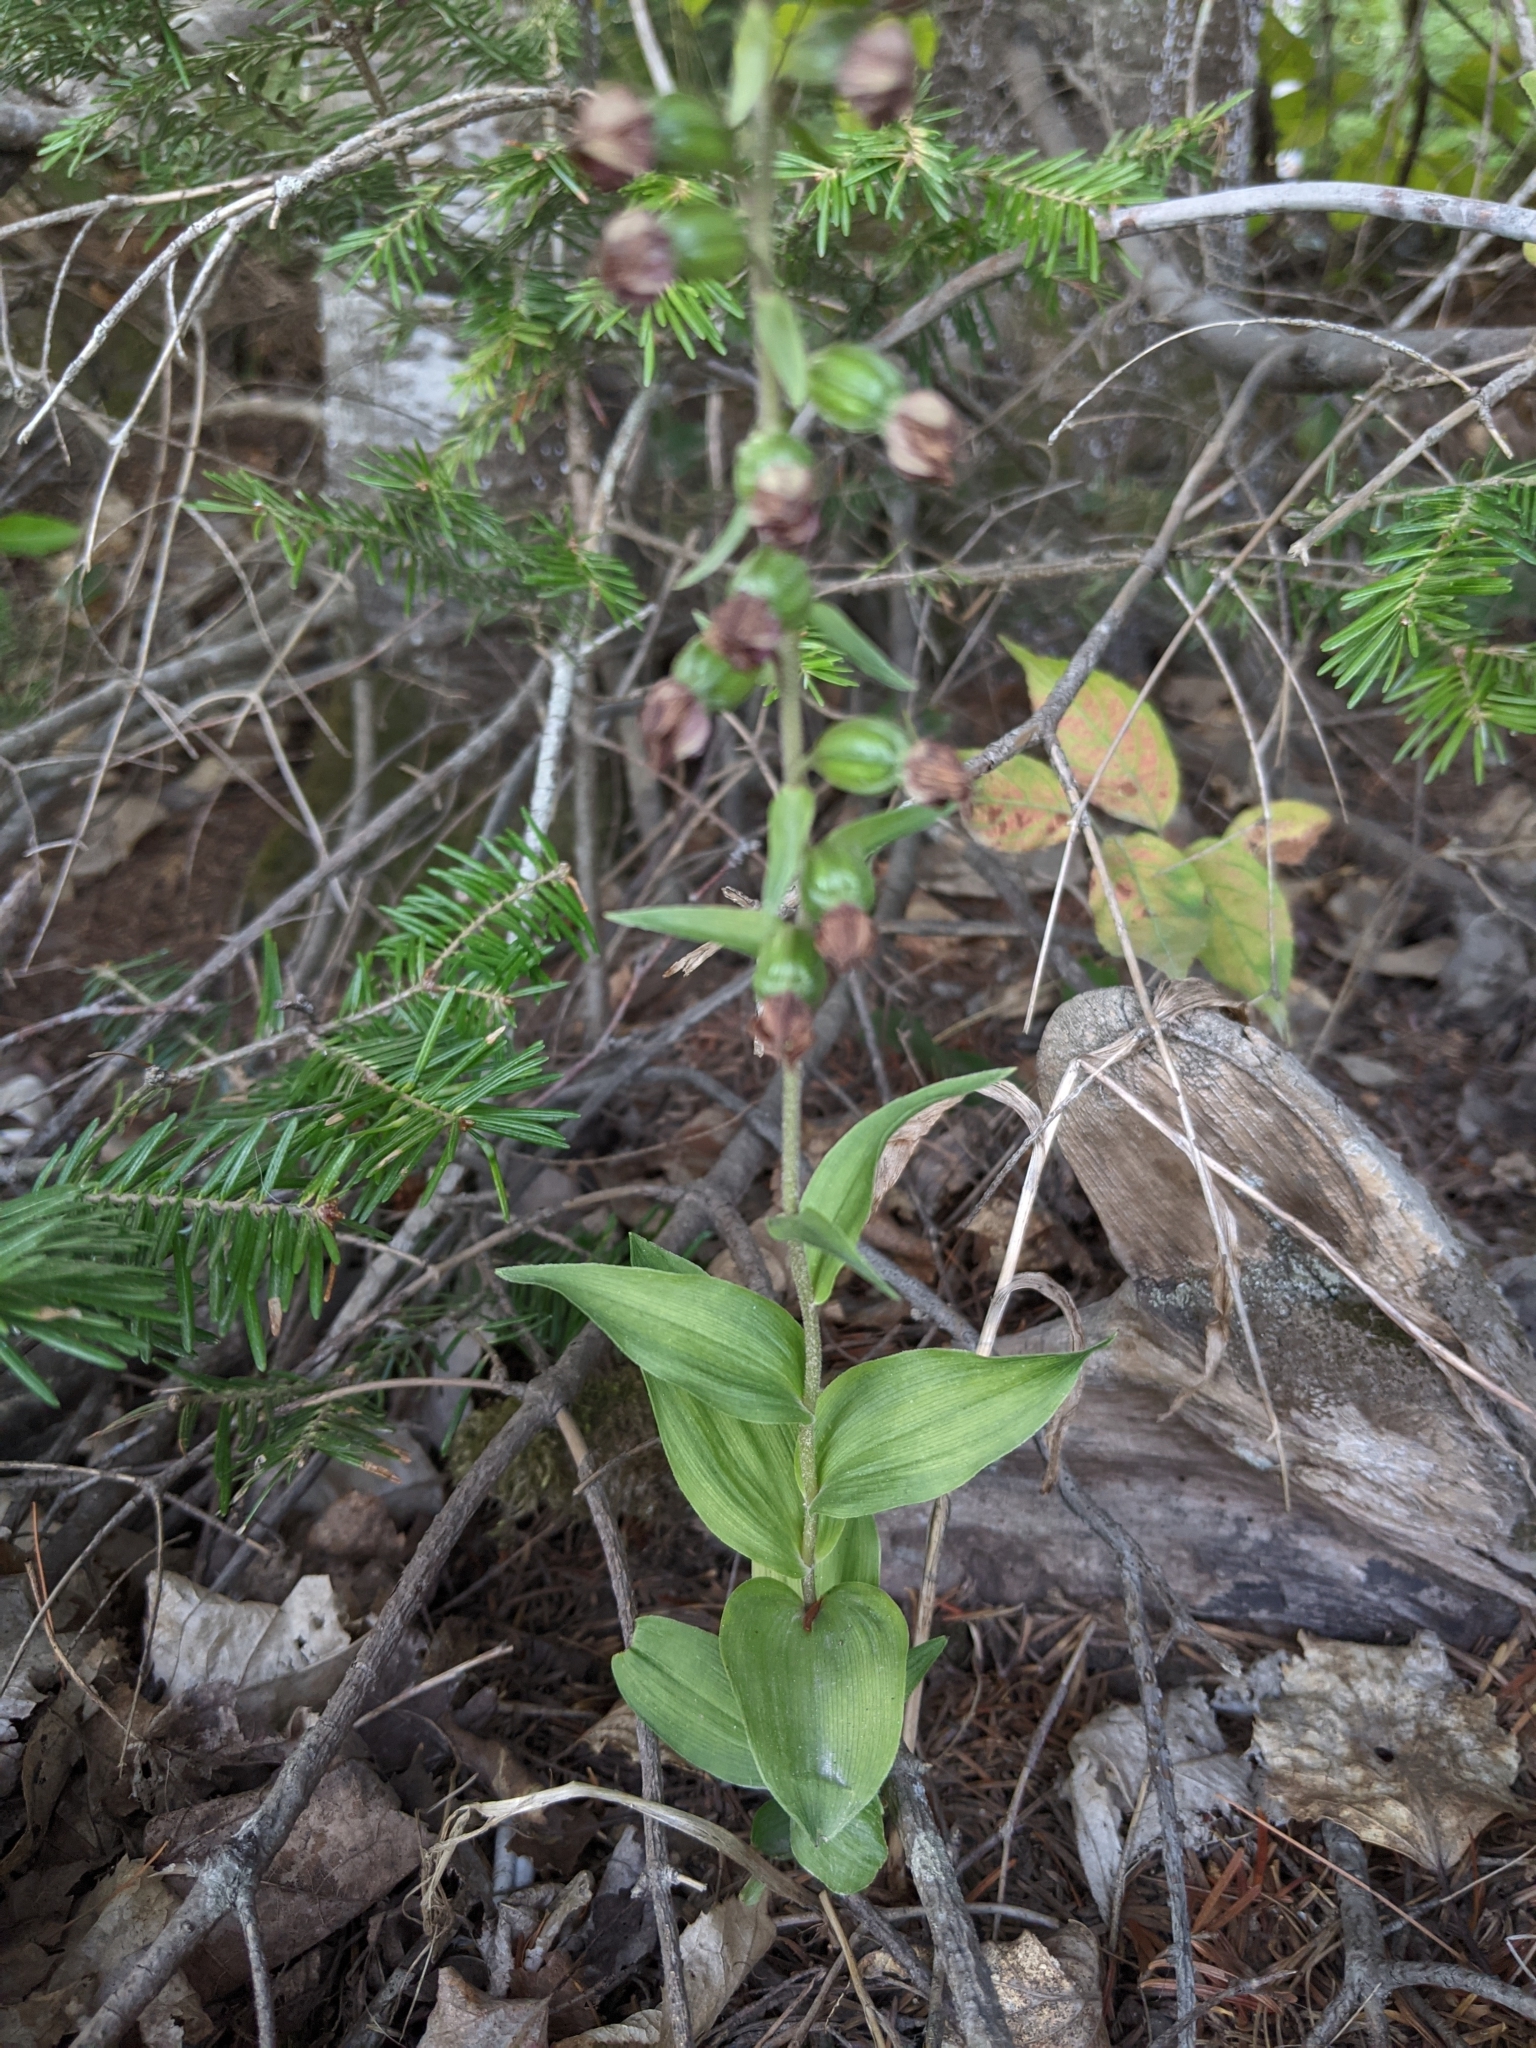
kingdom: Plantae
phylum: Tracheophyta
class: Liliopsida
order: Asparagales
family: Orchidaceae
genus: Epipactis
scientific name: Epipactis helleborine
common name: Broad-leaved helleborine
